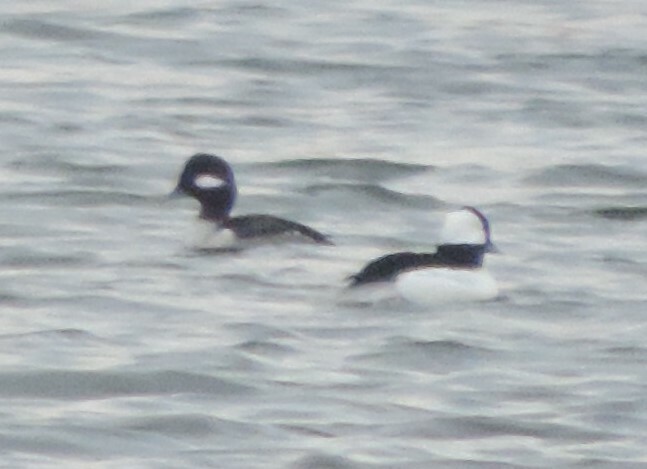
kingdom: Animalia
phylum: Chordata
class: Aves
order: Anseriformes
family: Anatidae
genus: Bucephala
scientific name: Bucephala albeola
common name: Bufflehead
